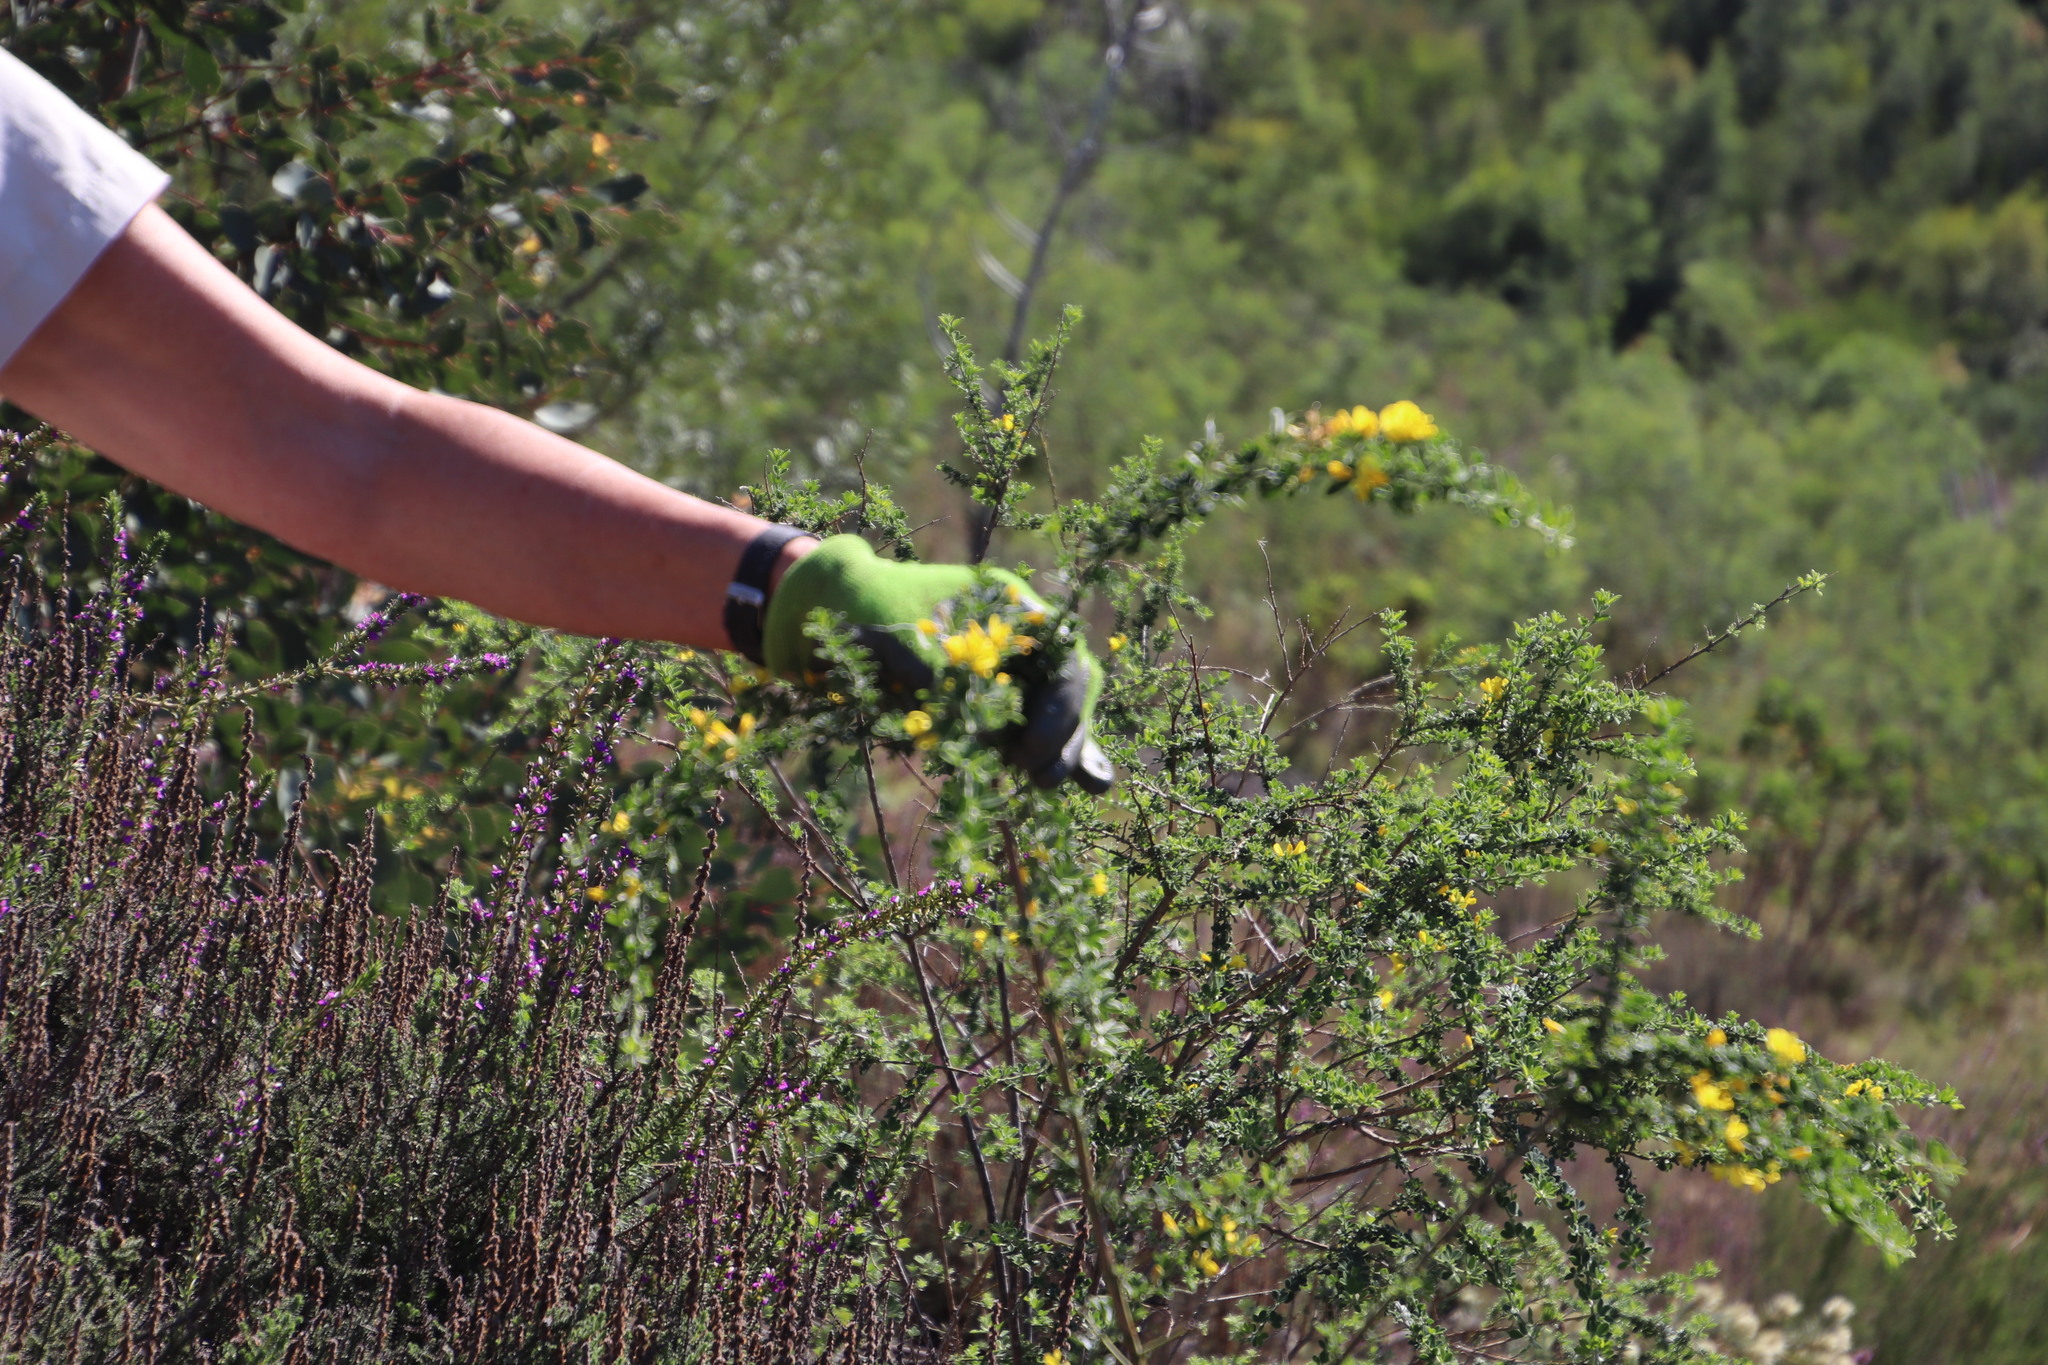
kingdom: Plantae
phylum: Tracheophyta
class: Magnoliopsida
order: Fabales
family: Fabaceae
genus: Genista
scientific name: Genista monspessulana
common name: Montpellier broom
